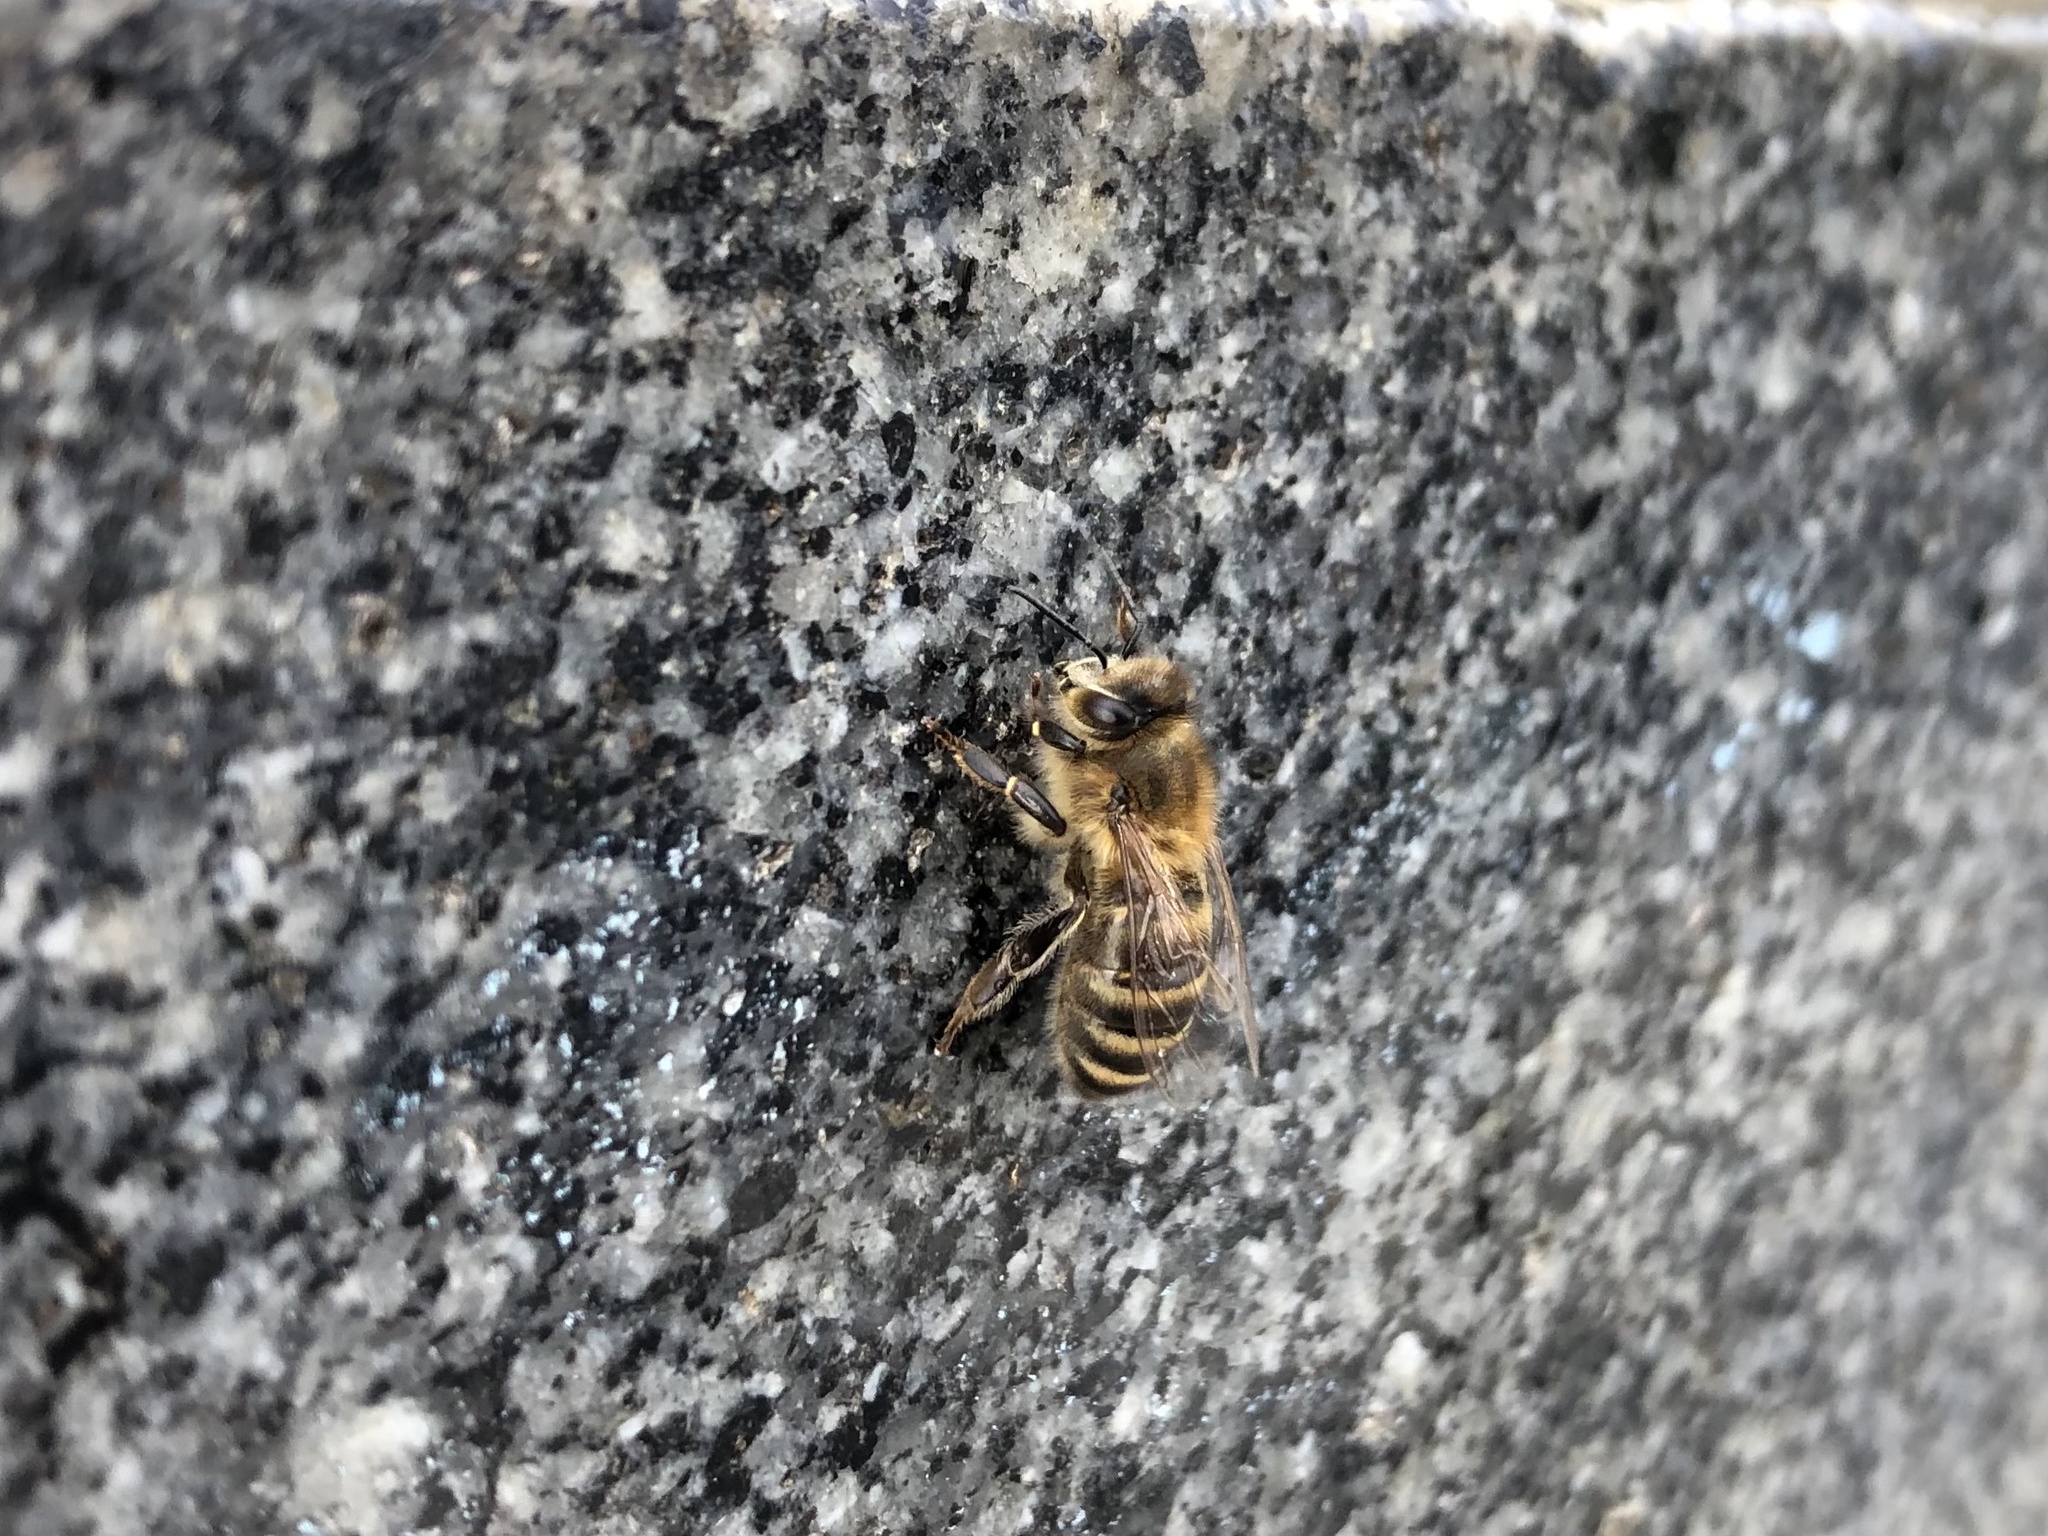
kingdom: Animalia
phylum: Arthropoda
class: Insecta
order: Hymenoptera
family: Apidae
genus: Apis
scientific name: Apis mellifera
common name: Honey bee
